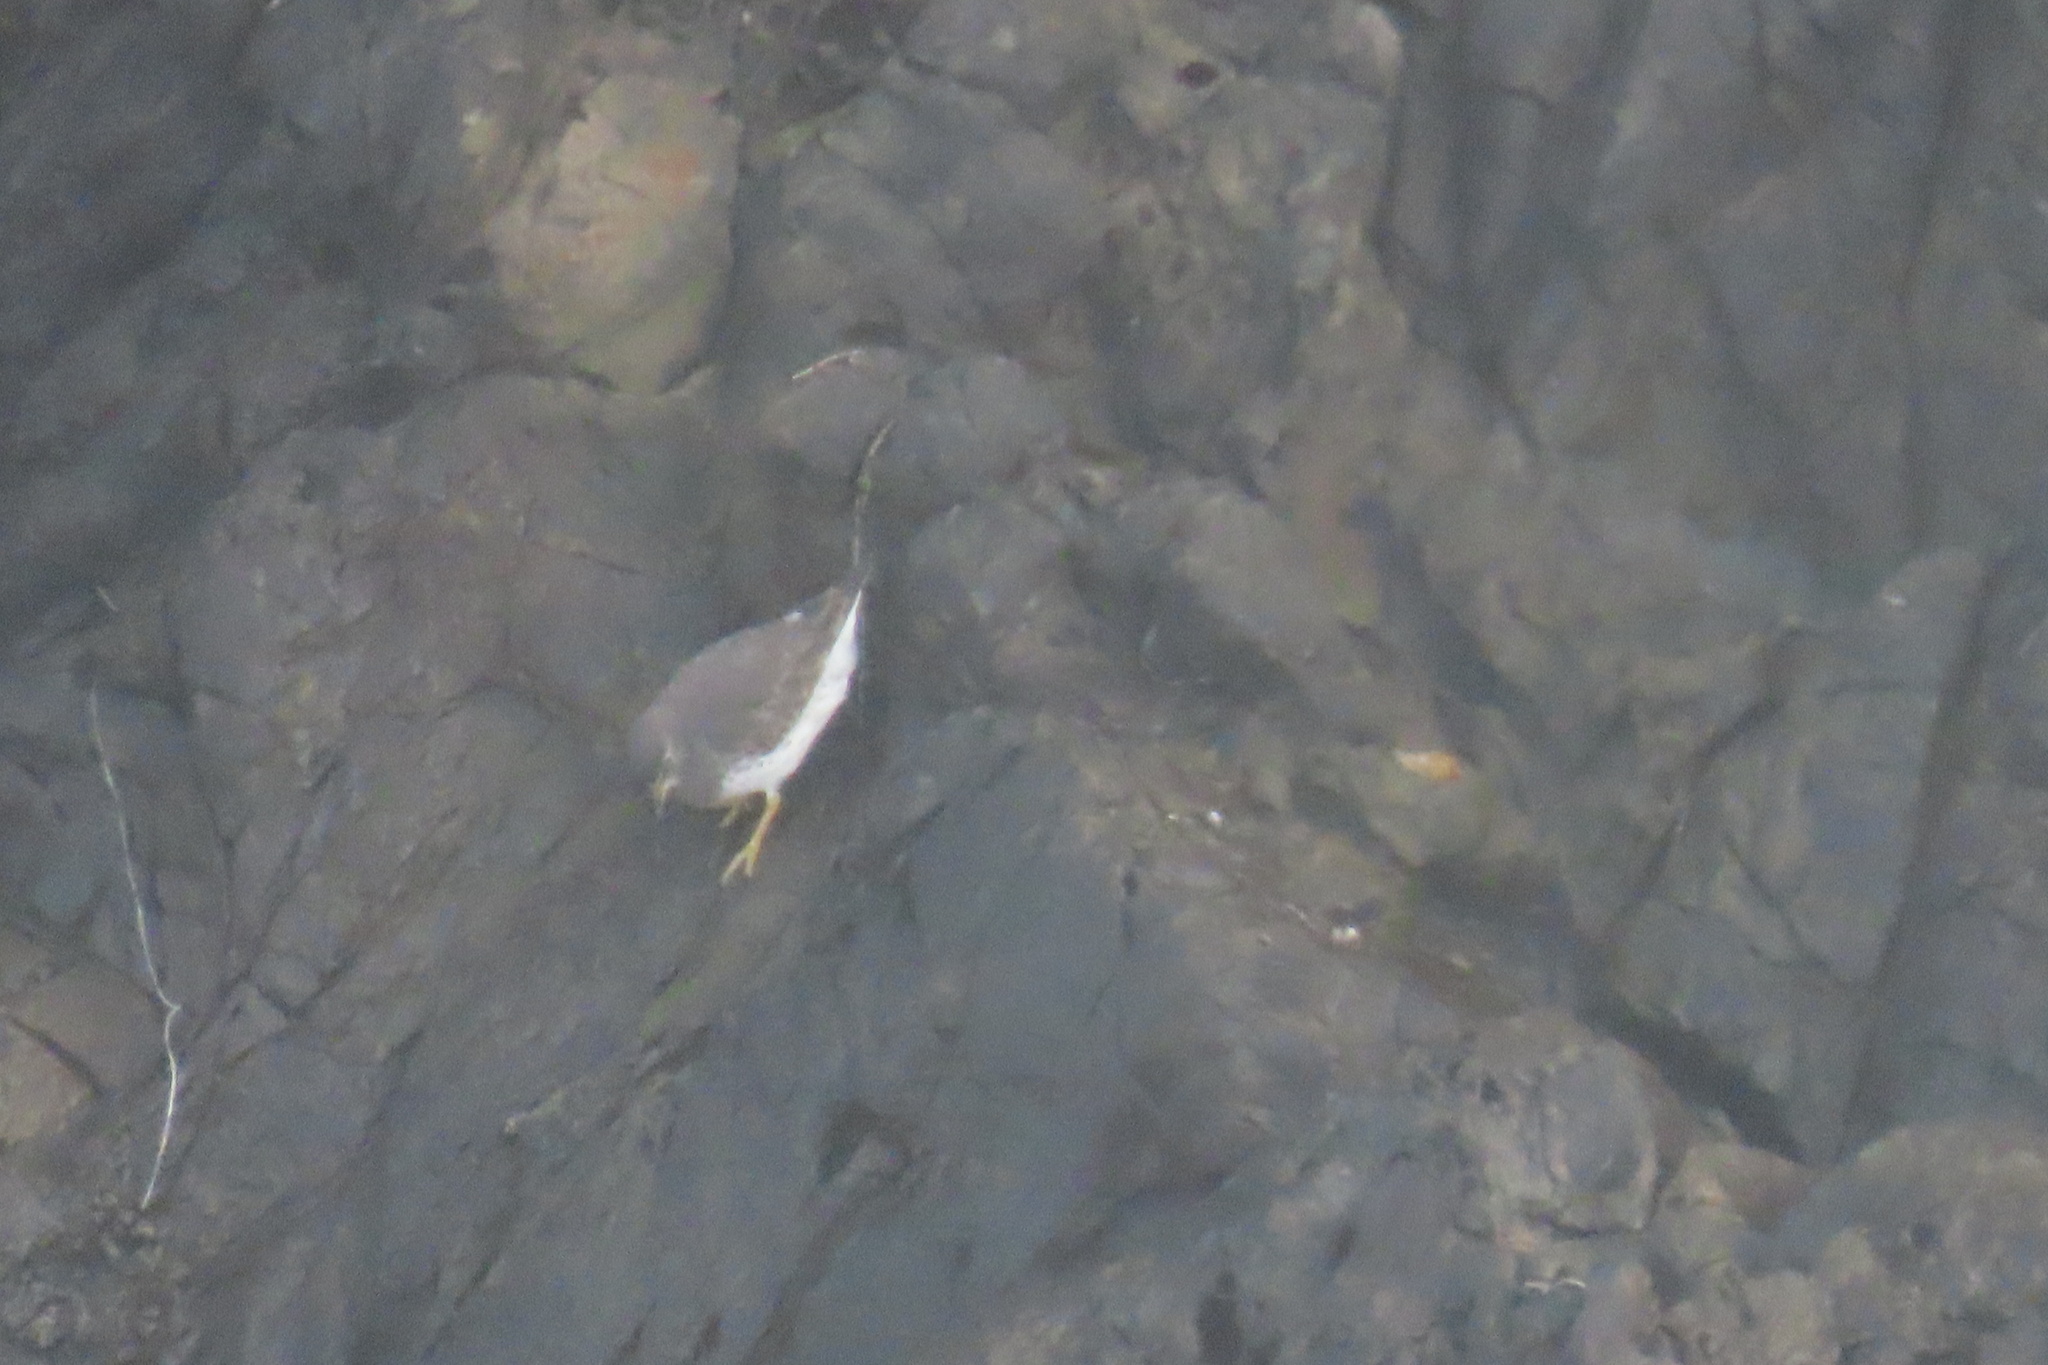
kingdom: Animalia
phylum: Chordata
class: Aves
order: Charadriiformes
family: Scolopacidae
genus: Calidris
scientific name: Calidris virgata
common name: Surfbird
